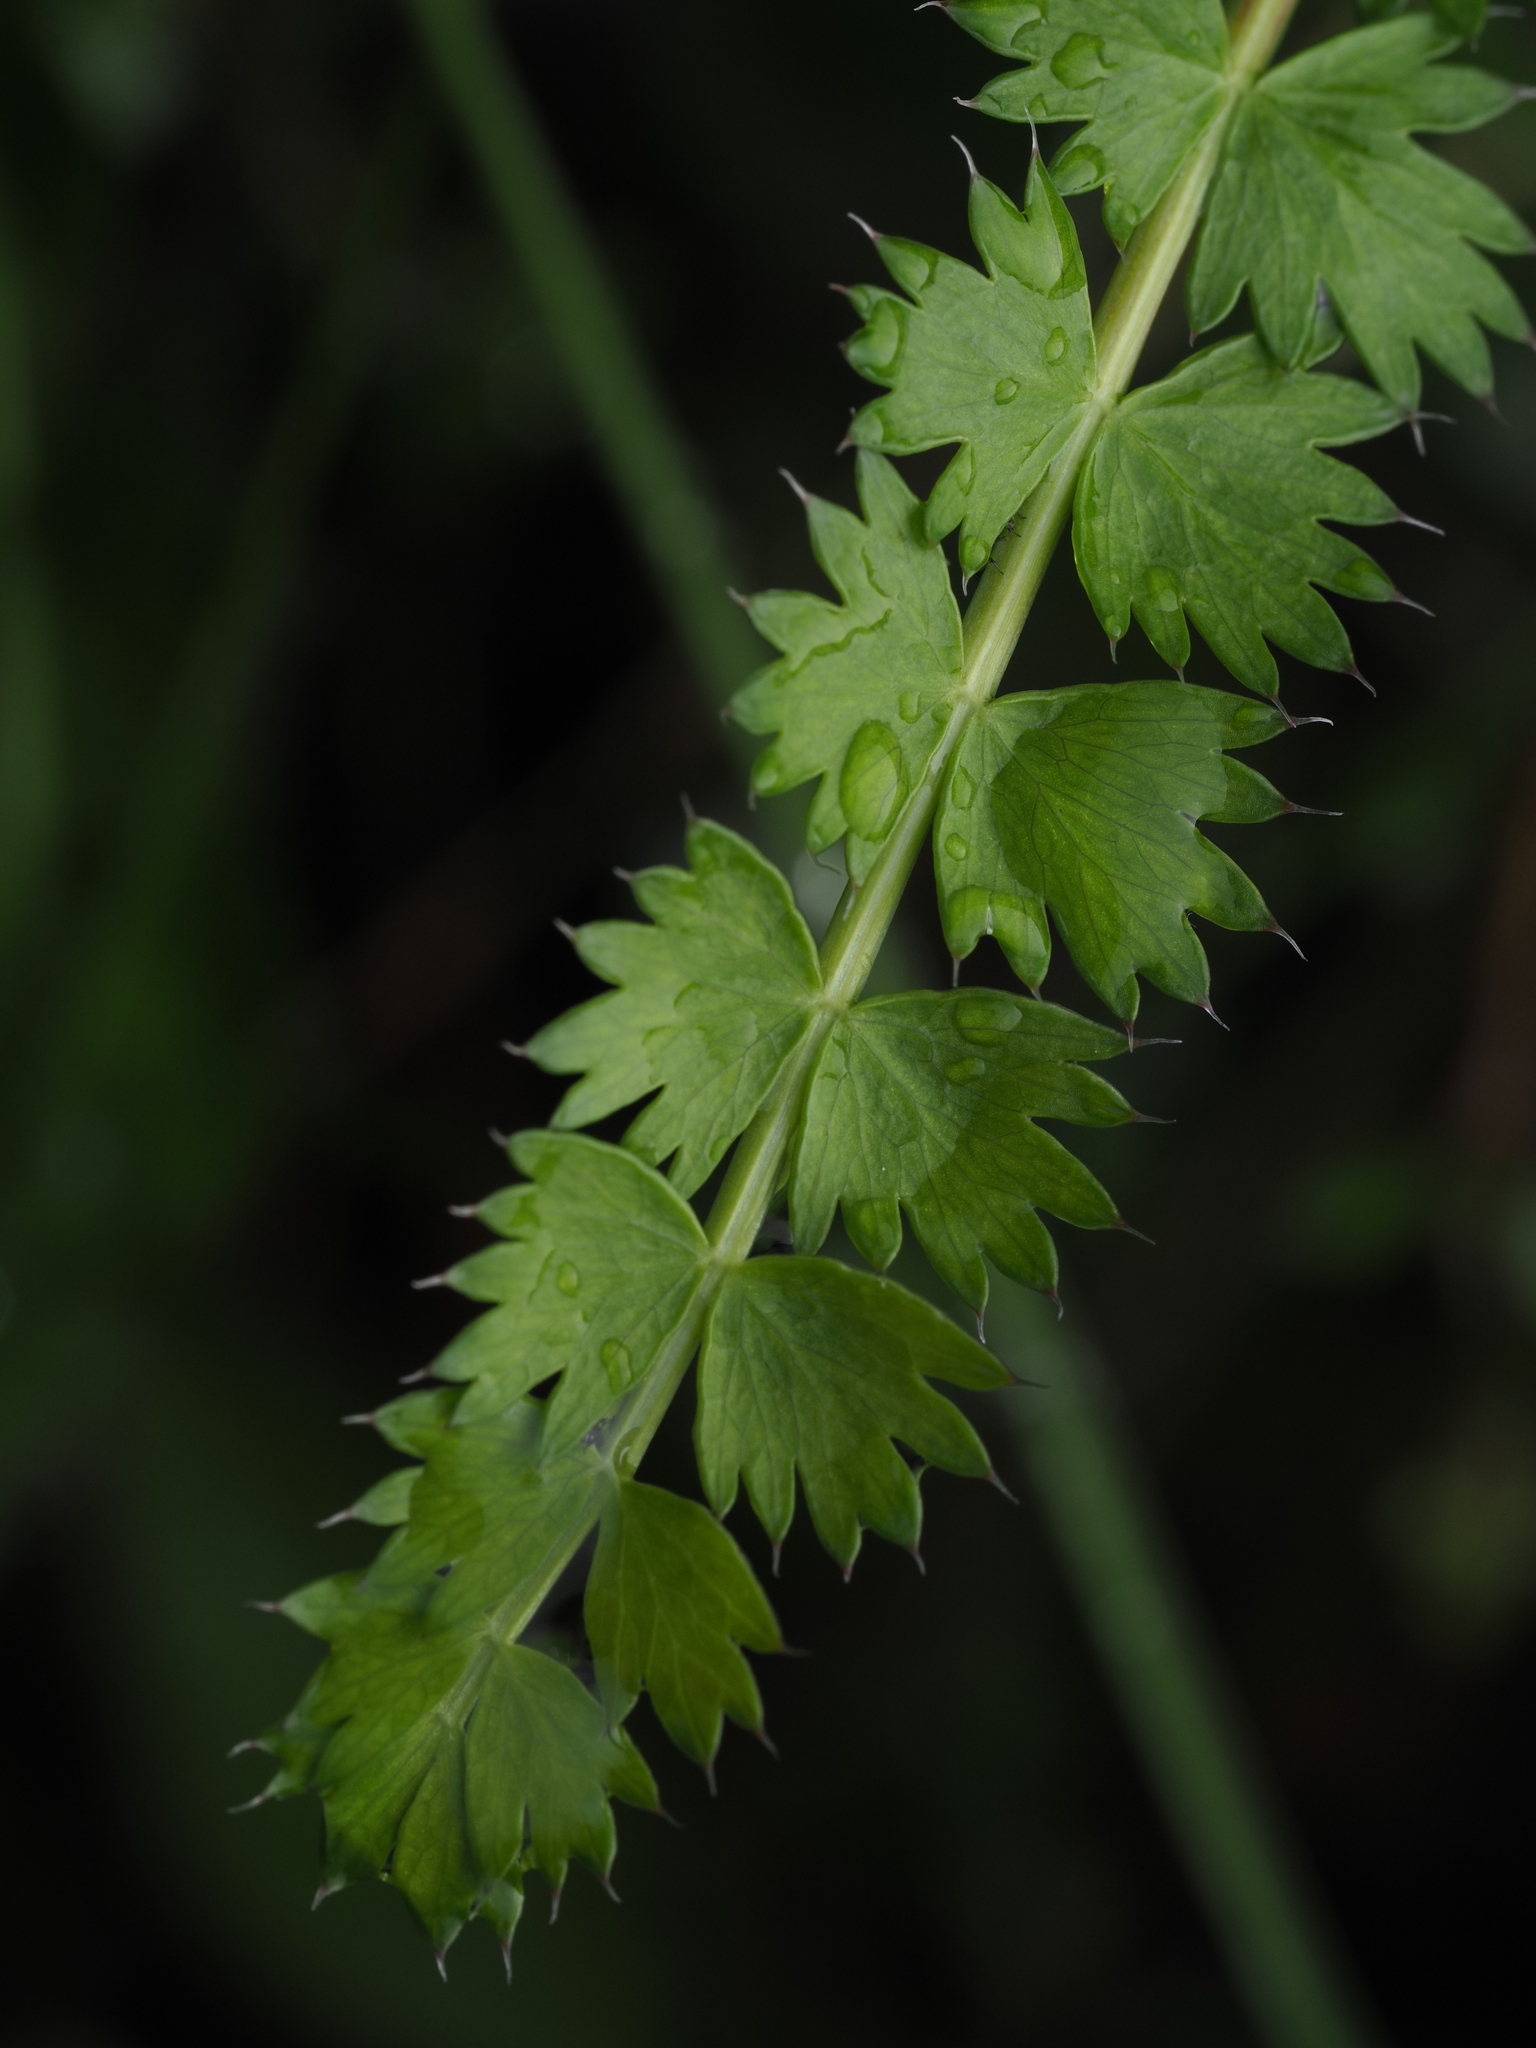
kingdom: Plantae
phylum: Tracheophyta
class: Magnoliopsida
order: Apiales
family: Apiaceae
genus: Anisotome
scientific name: Anisotome aromatica
